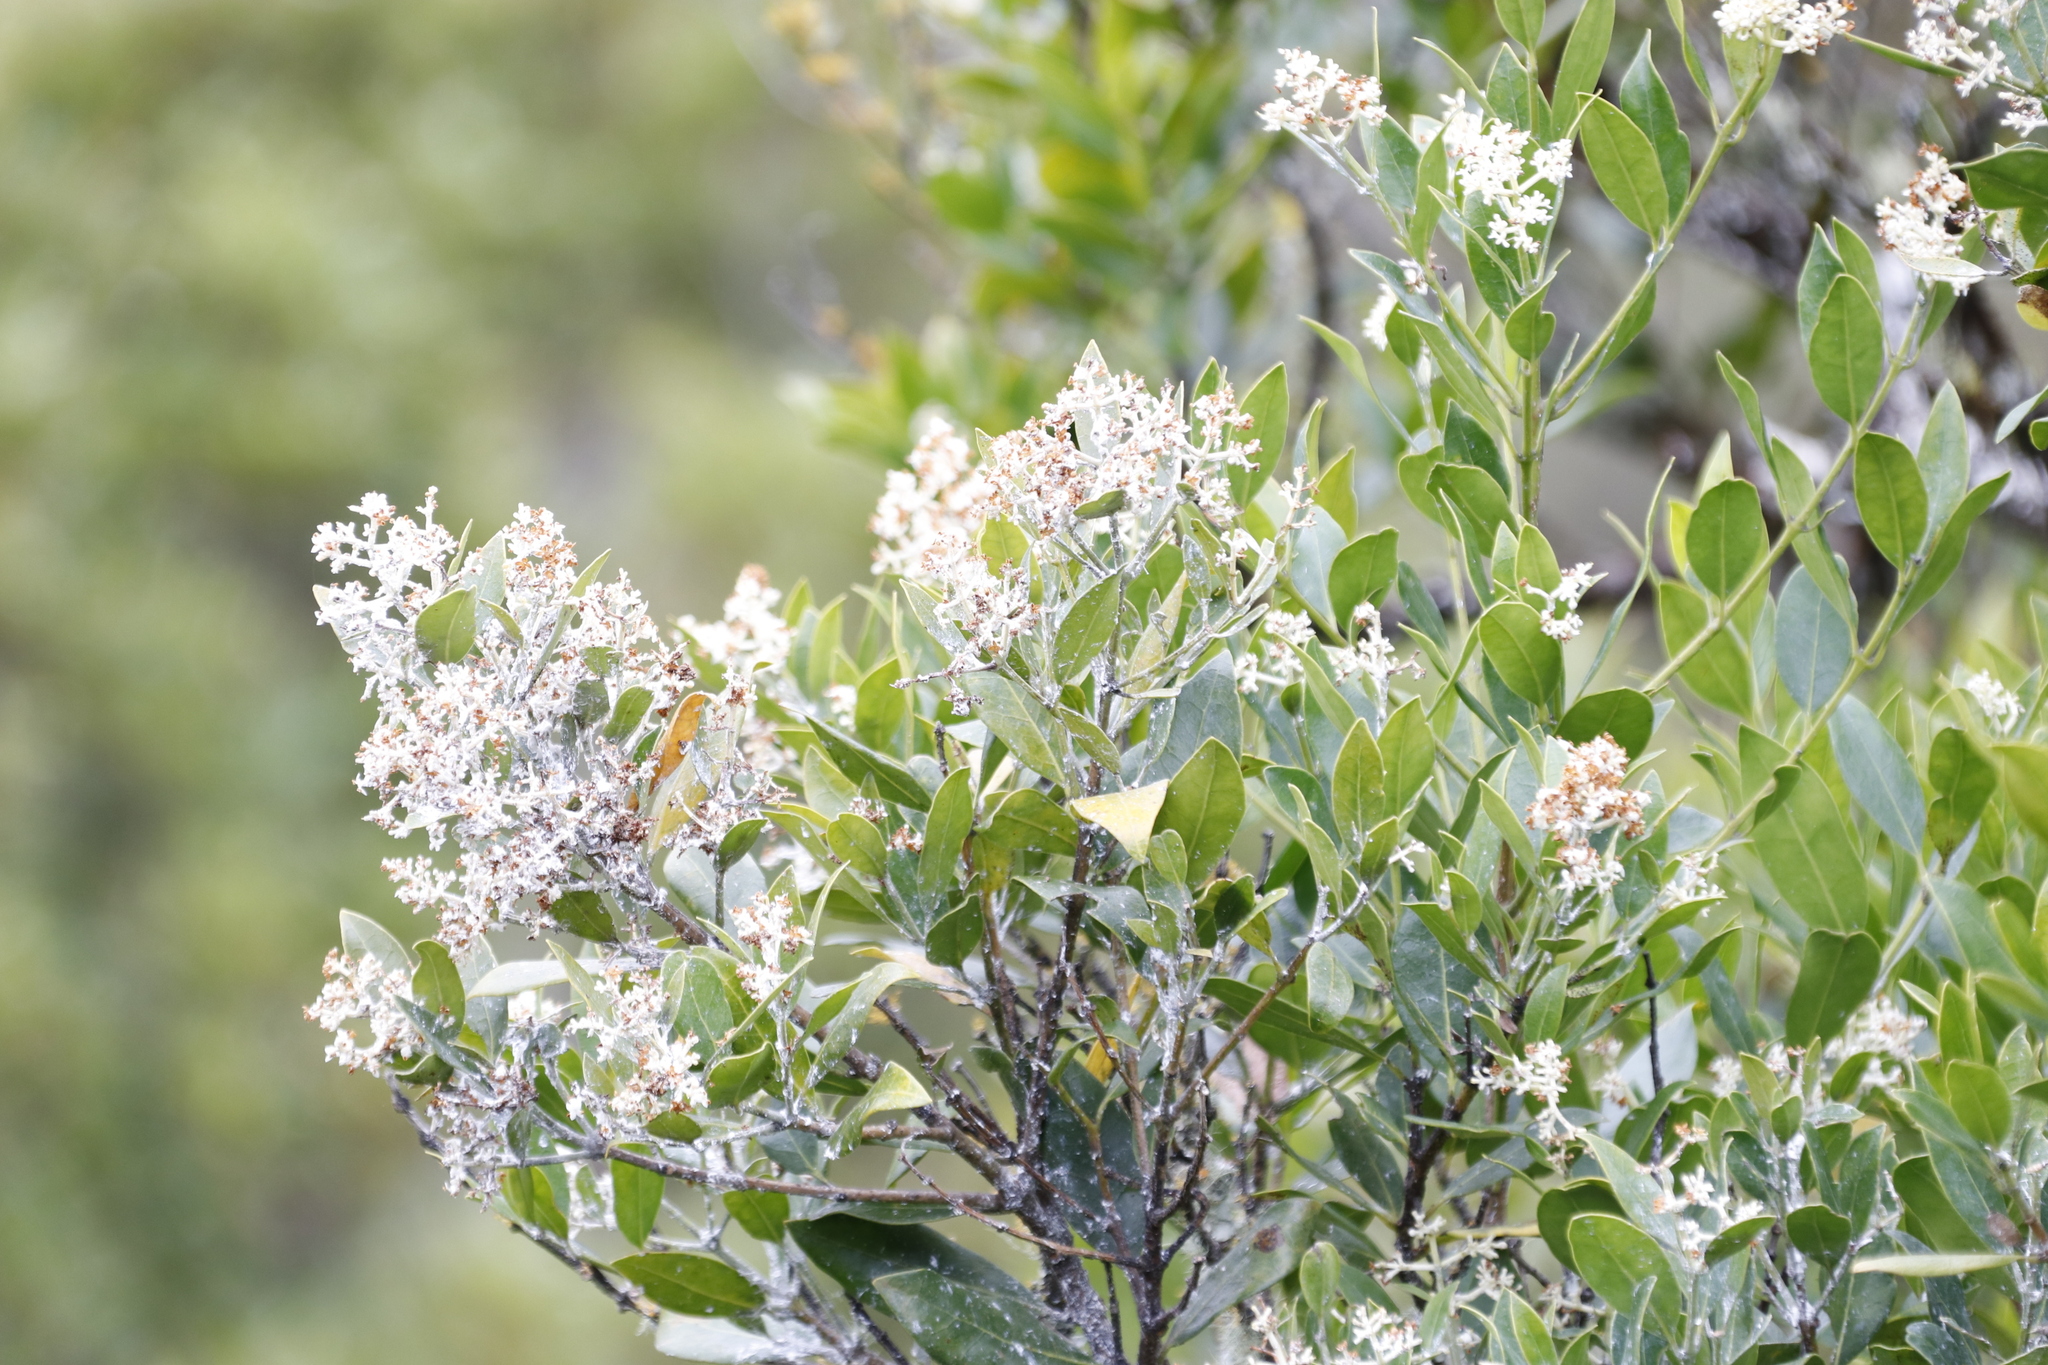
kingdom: Plantae
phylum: Tracheophyta
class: Magnoliopsida
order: Lamiales
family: Oleaceae
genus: Olea
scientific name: Olea capensis
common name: Black ironwood
